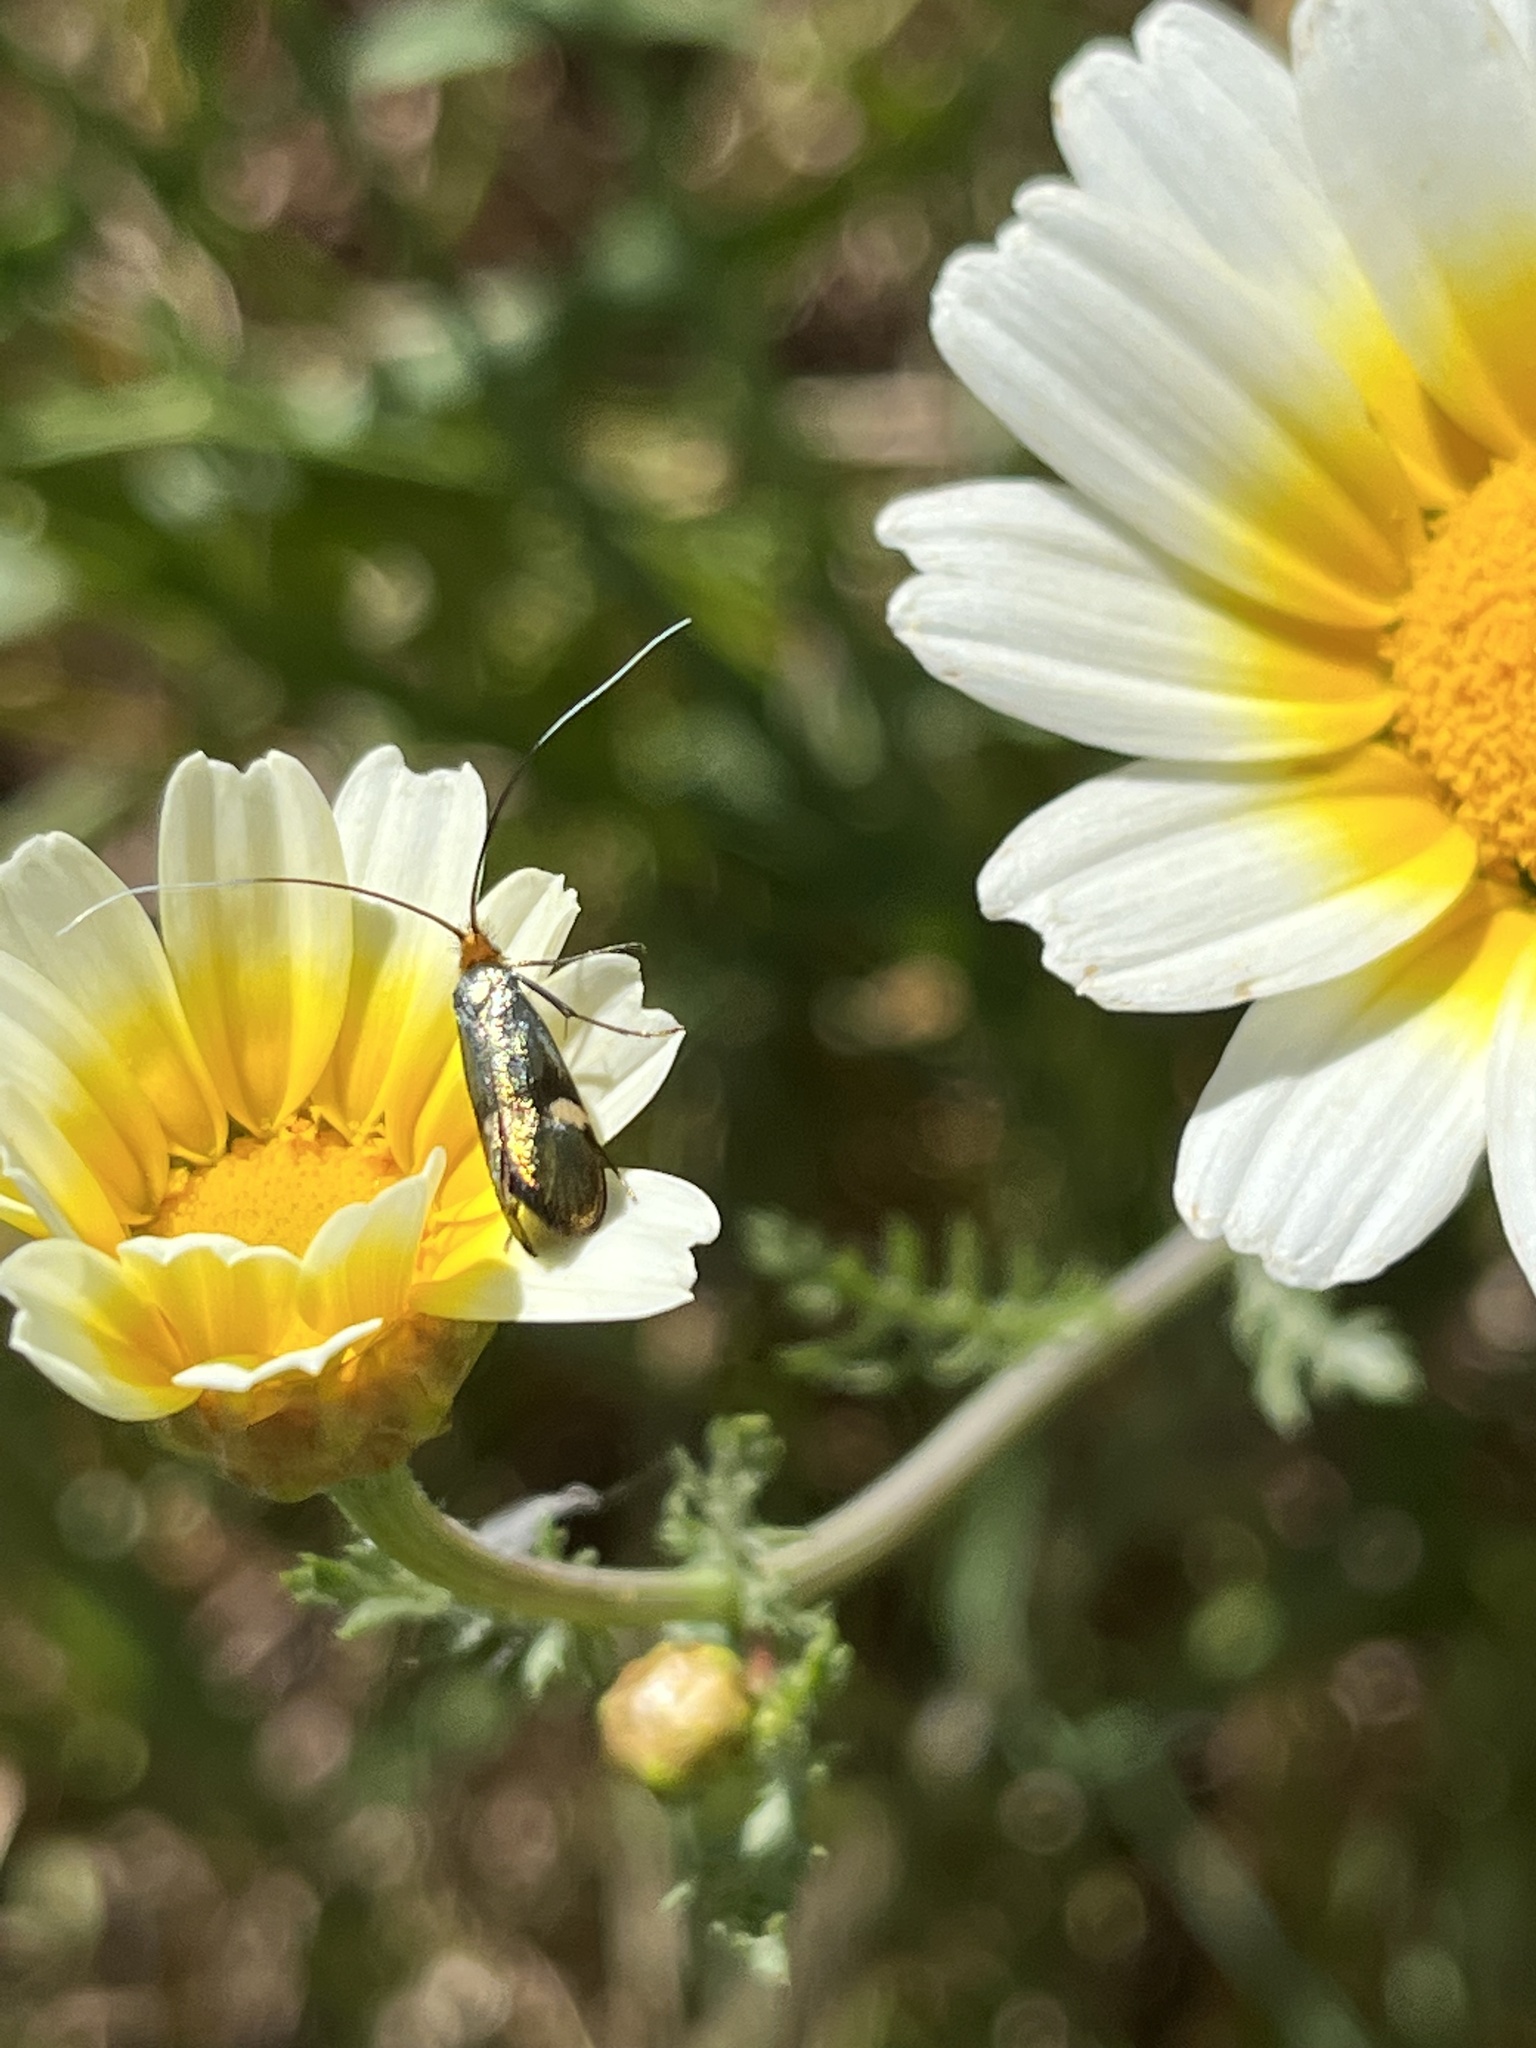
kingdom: Animalia
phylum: Arthropoda
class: Insecta
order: Lepidoptera
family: Adelidae
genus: Nemophora
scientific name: Nemophora raddaella
